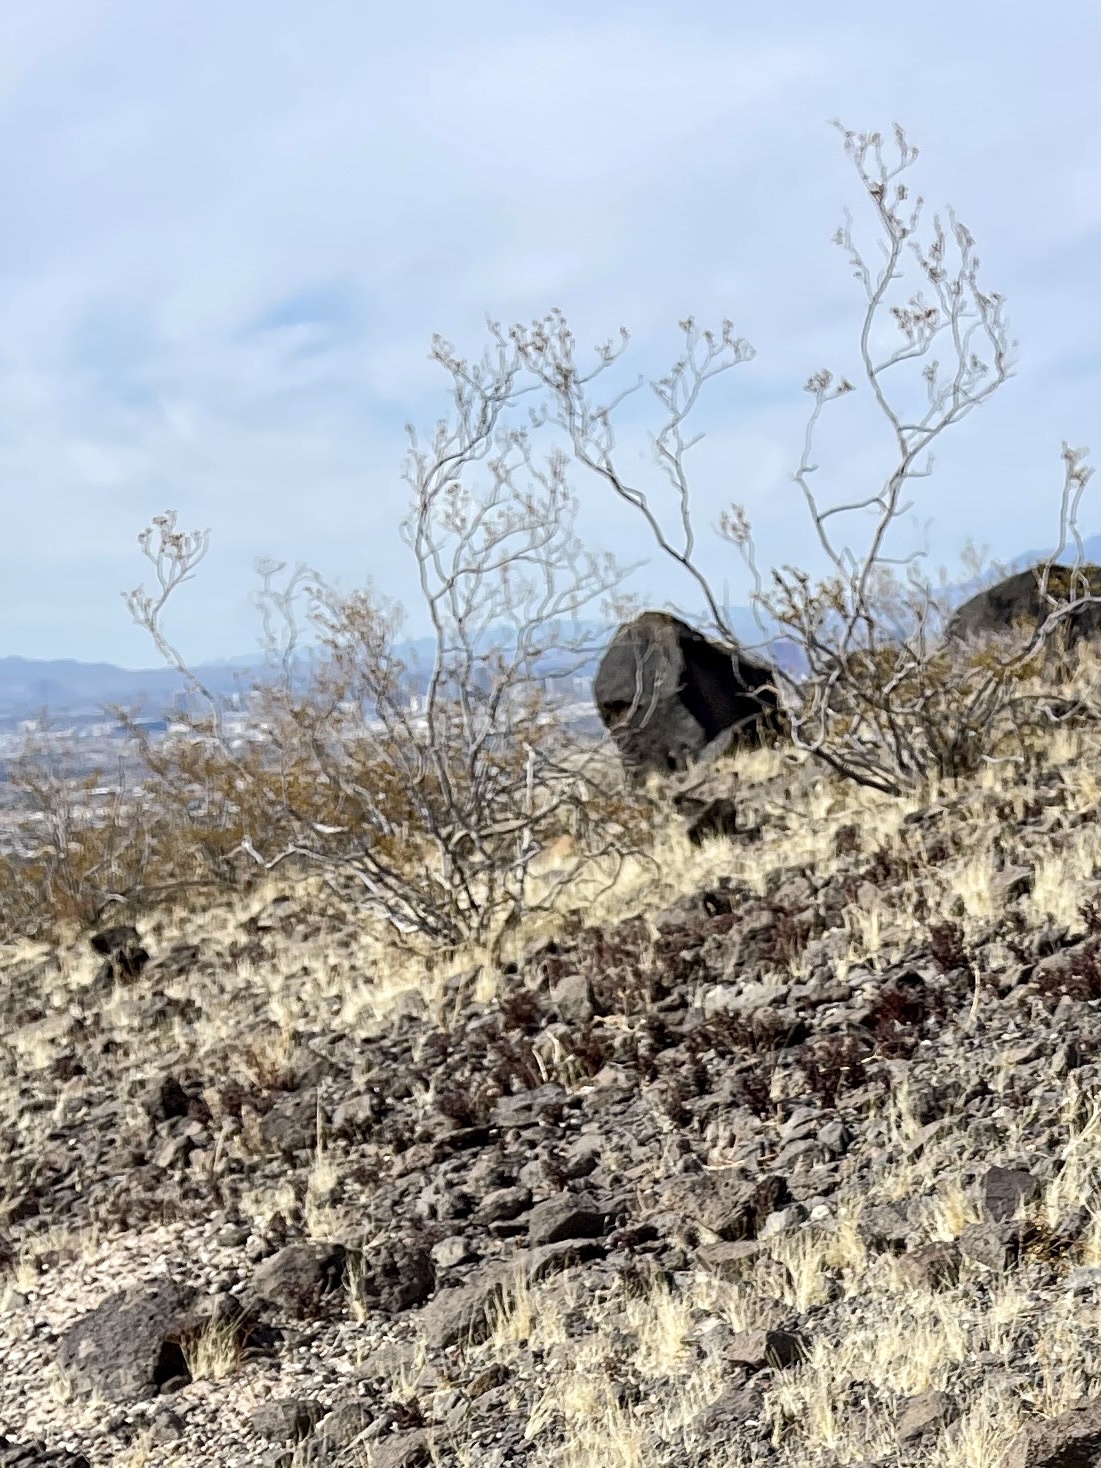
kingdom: Plantae
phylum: Tracheophyta
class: Magnoliopsida
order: Zygophyllales
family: Zygophyllaceae
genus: Larrea
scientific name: Larrea tridentata
